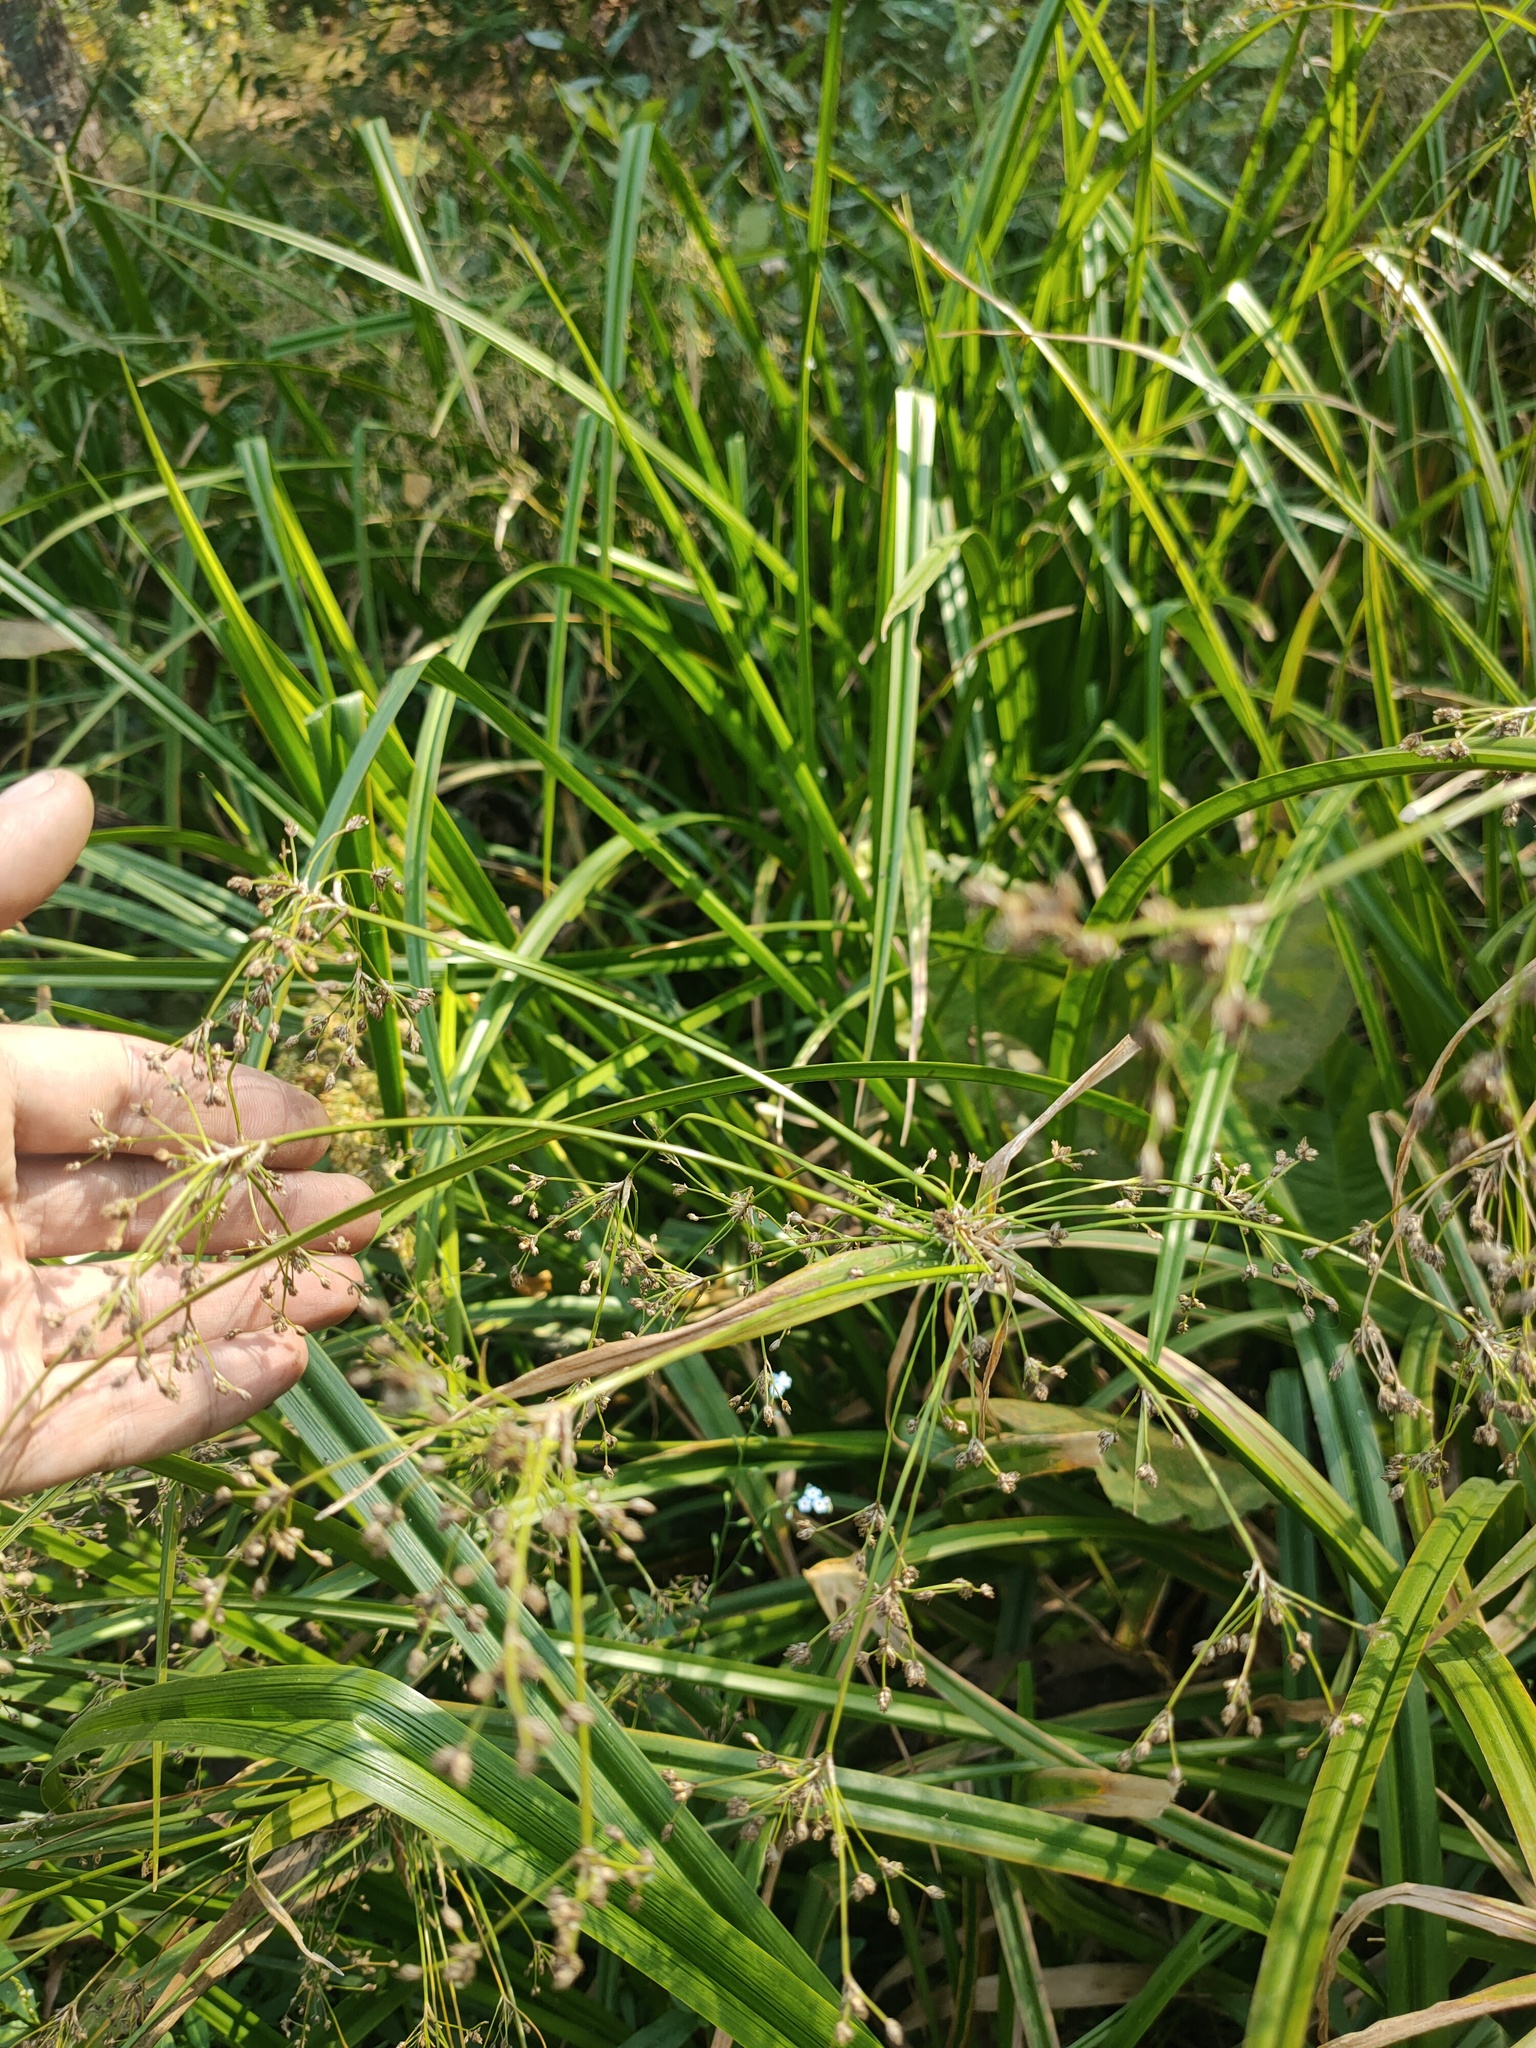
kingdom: Plantae
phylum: Tracheophyta
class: Liliopsida
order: Poales
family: Cyperaceae
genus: Scirpus
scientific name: Scirpus sylvaticus
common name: Wood club-rush
